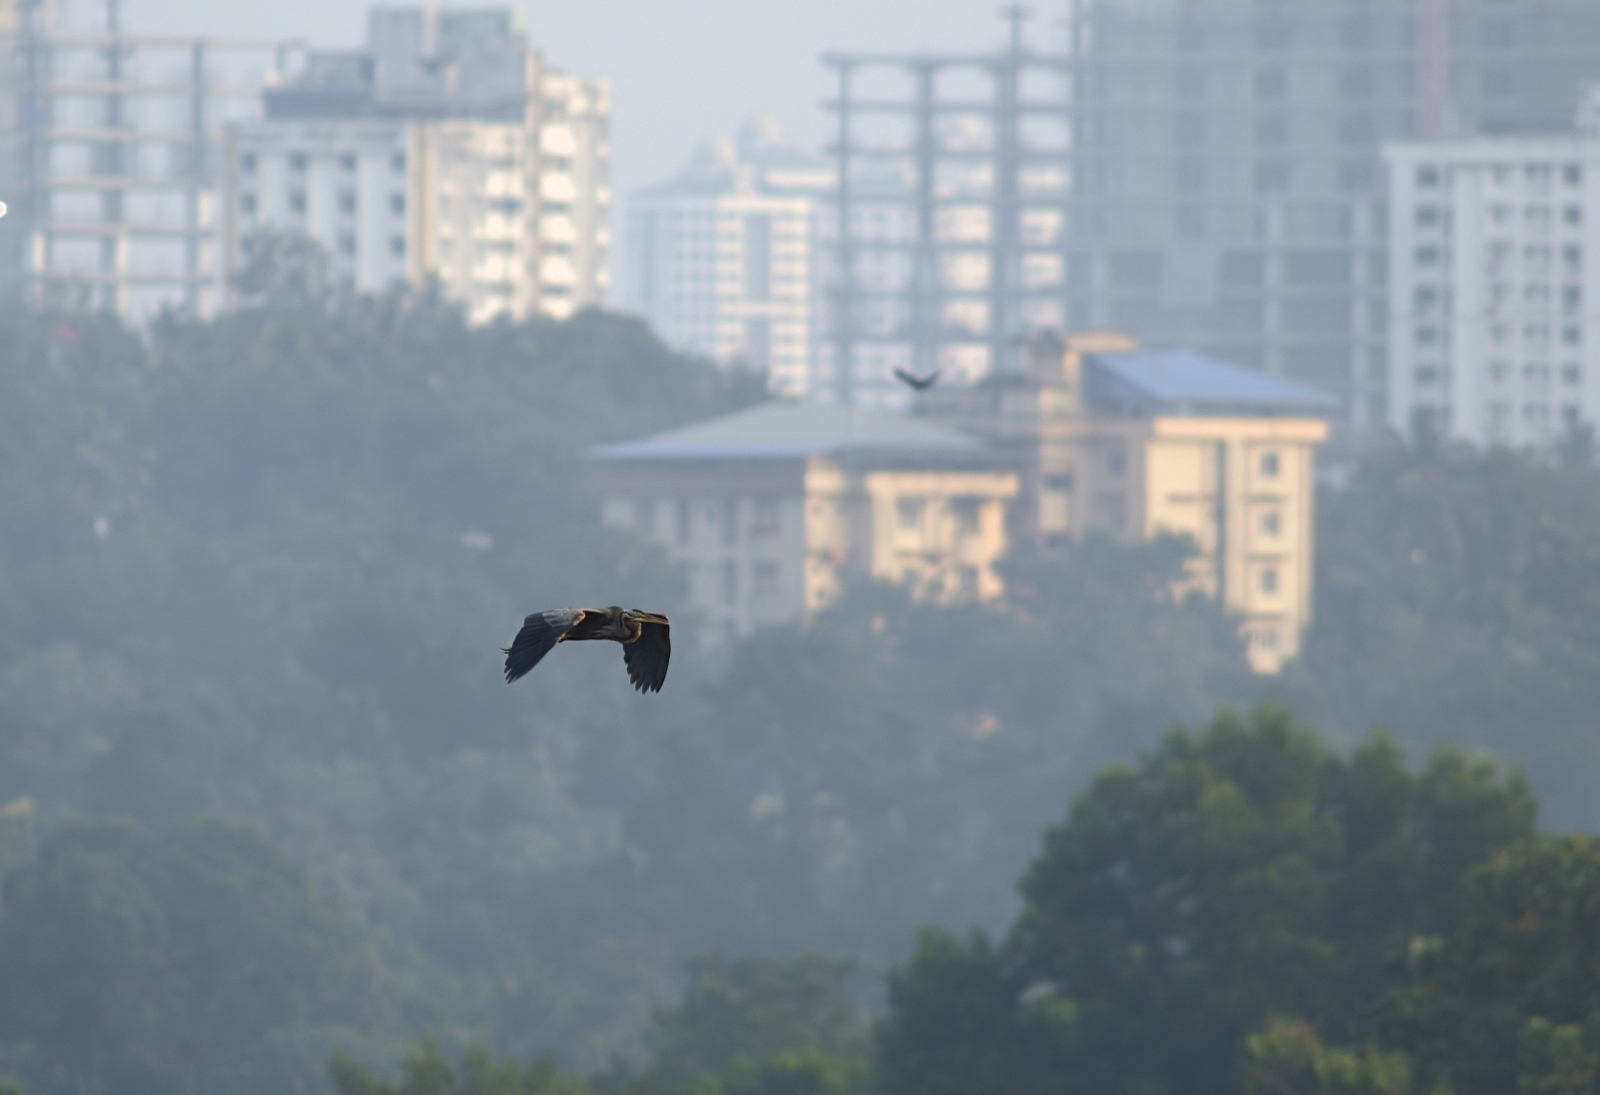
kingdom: Animalia
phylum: Chordata
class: Aves
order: Pelecaniformes
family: Ardeidae
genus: Ardea
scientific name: Ardea purpurea
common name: Purple heron
